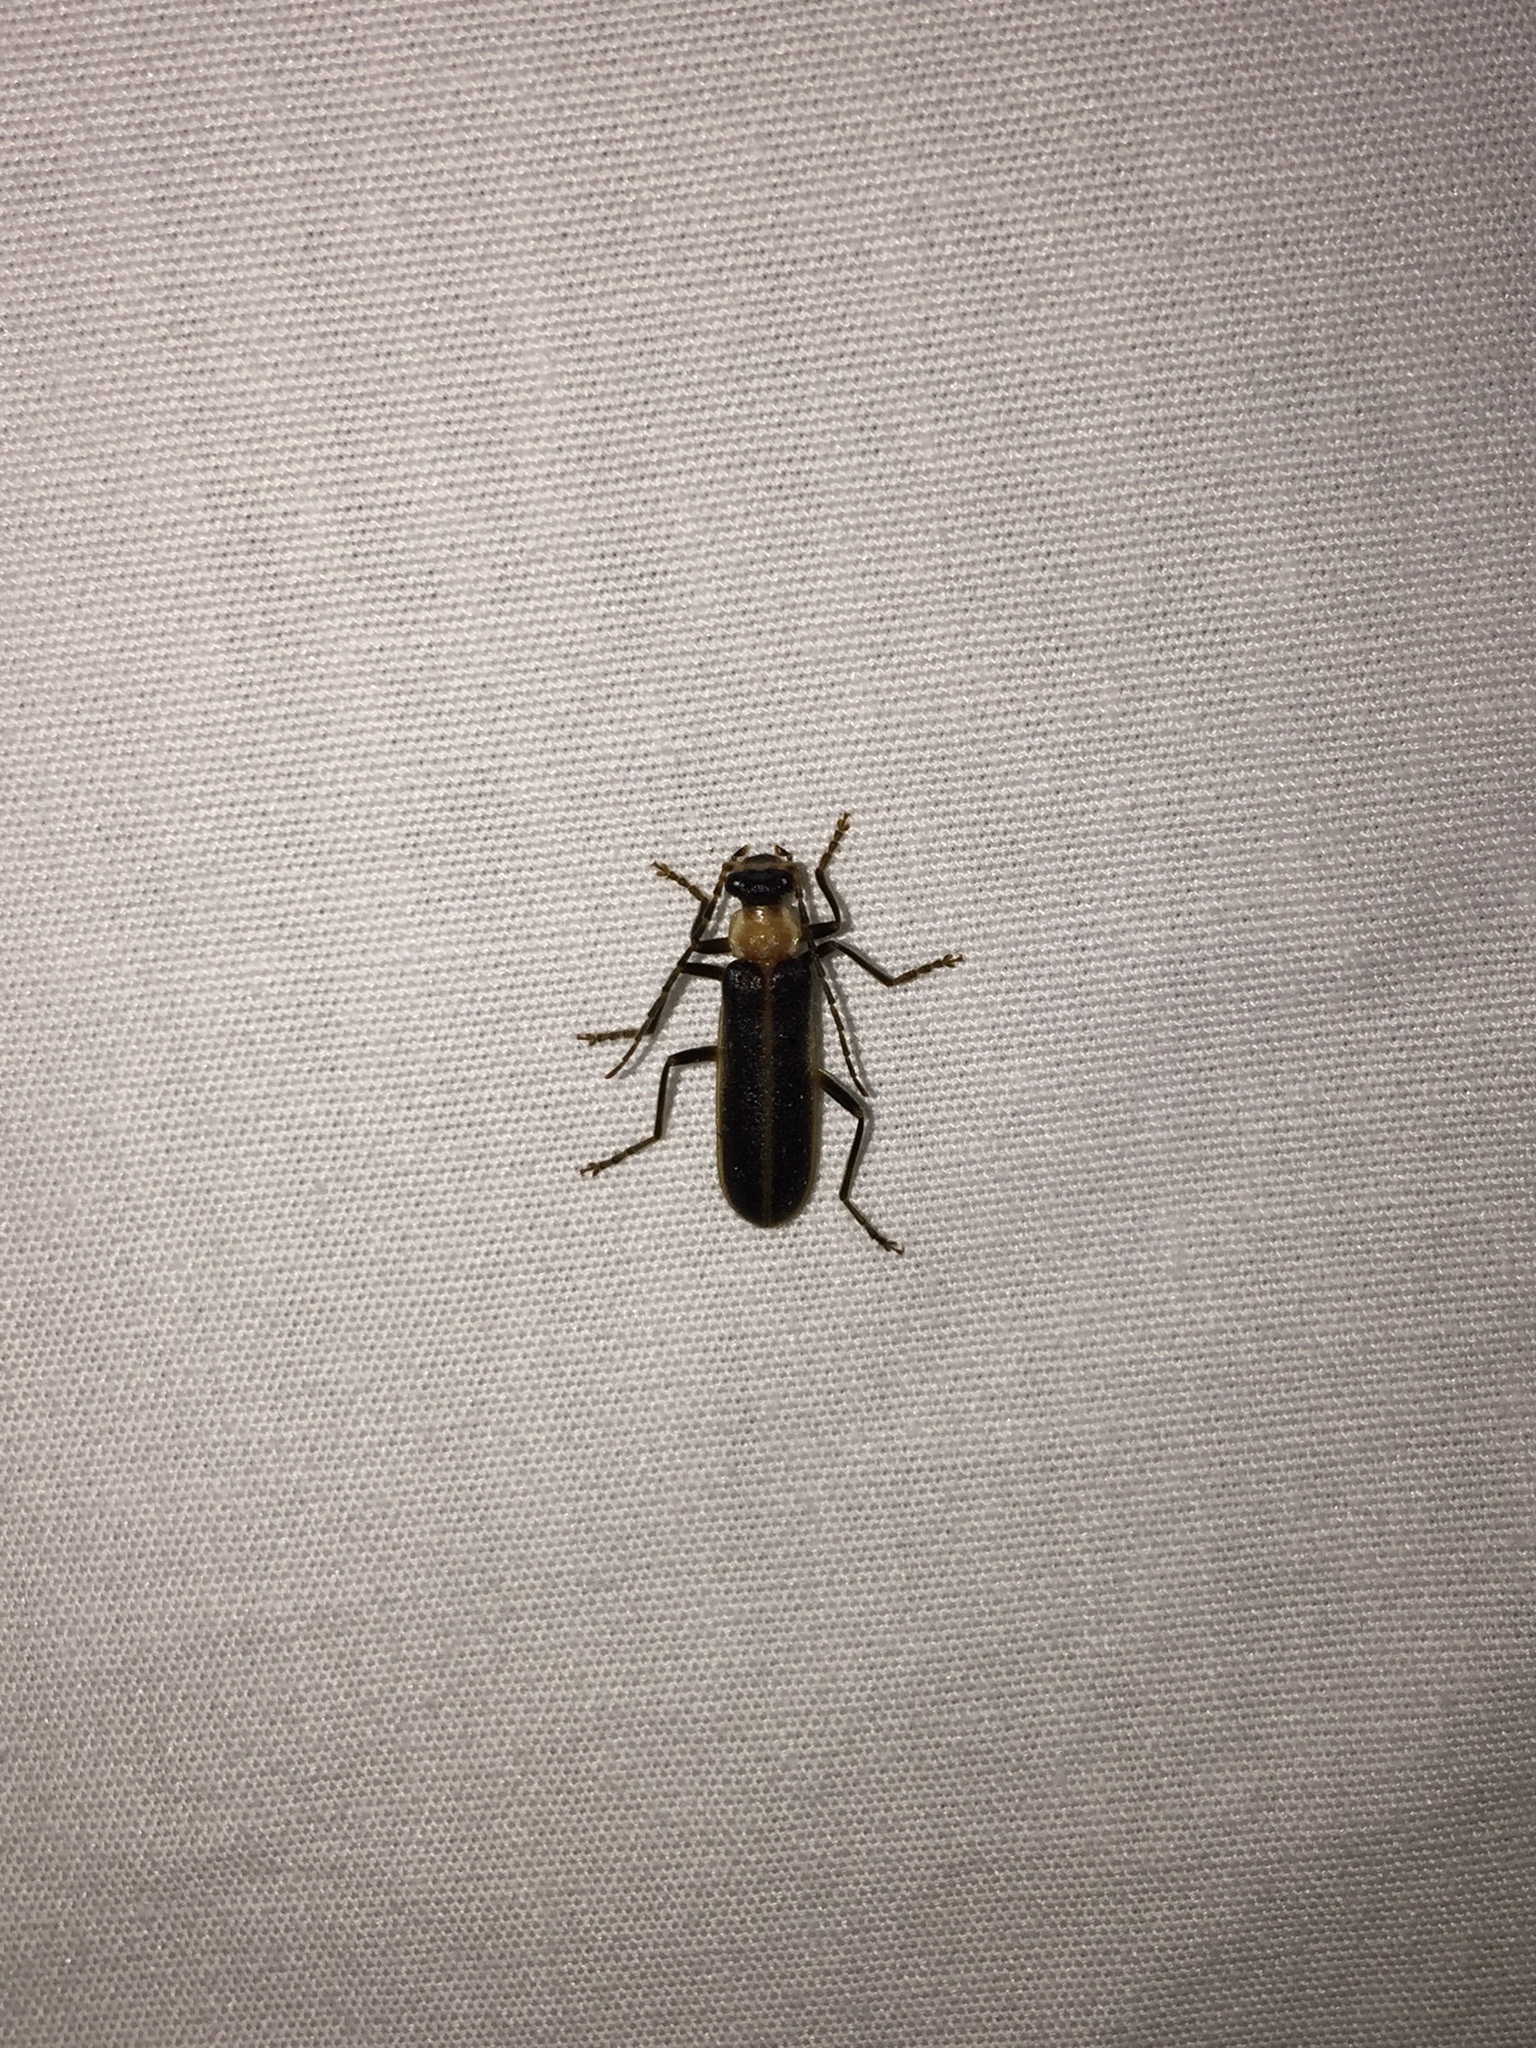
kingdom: Animalia
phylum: Arthropoda
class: Insecta
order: Coleoptera
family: Cantharidae
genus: Podabrus
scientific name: Podabrus flavicollis
